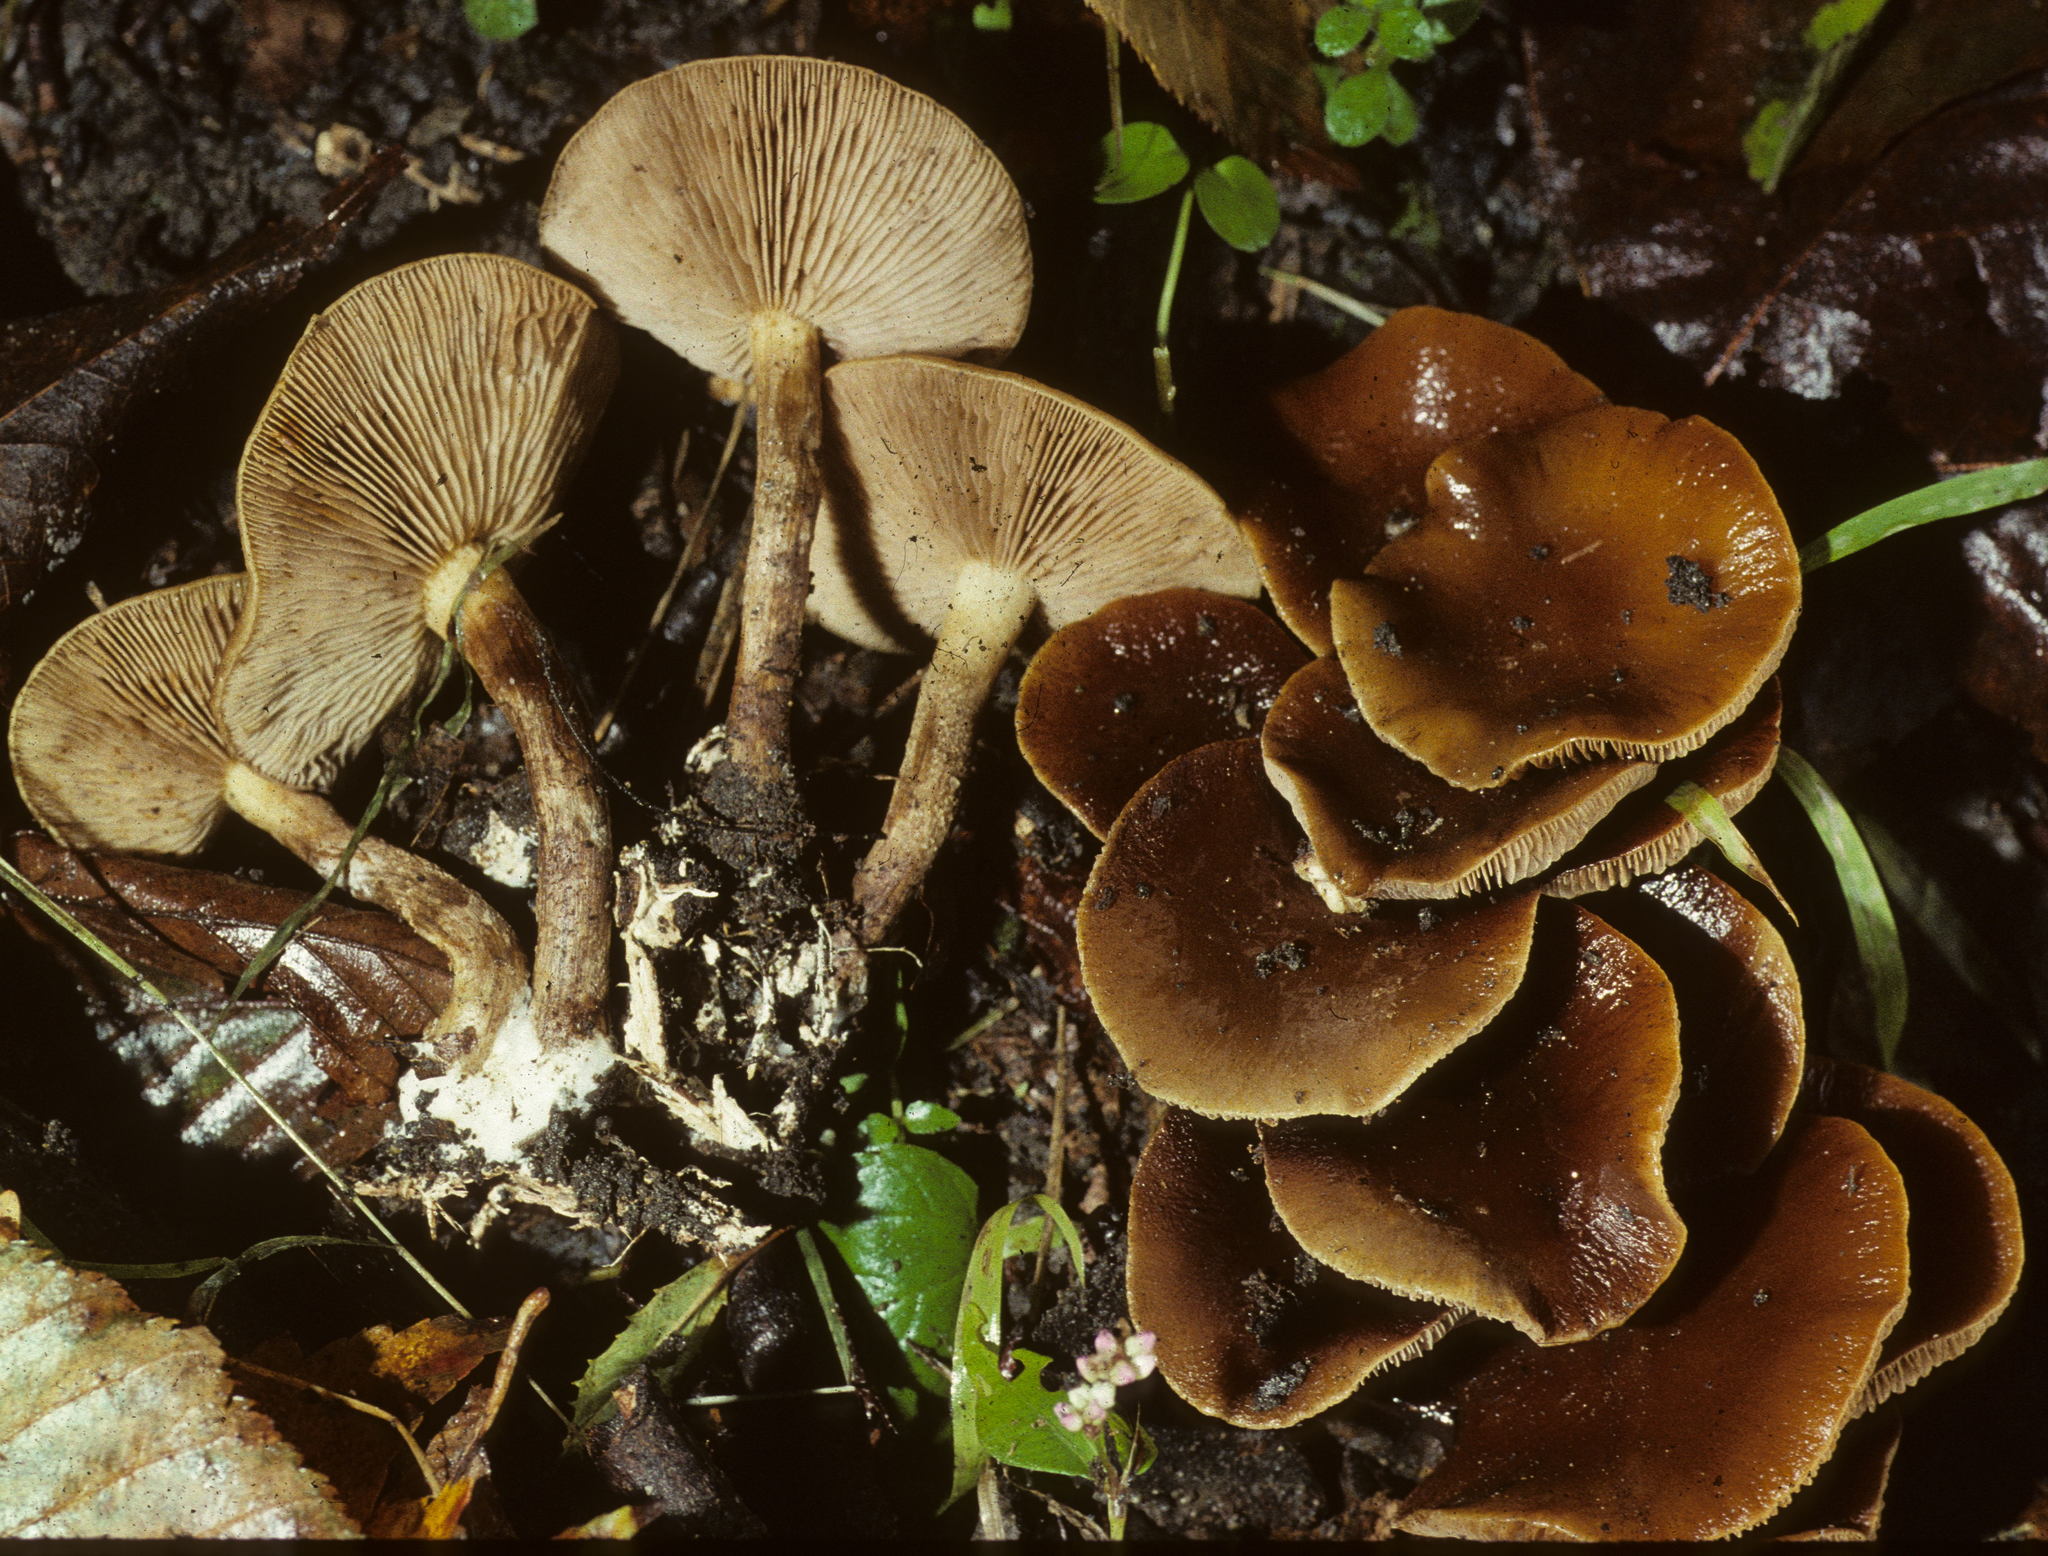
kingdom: Fungi
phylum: Basidiomycota
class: Agaricomycetes
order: Agaricales
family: Strophariaceae
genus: Agrocybe
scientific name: Agrocybe firma
